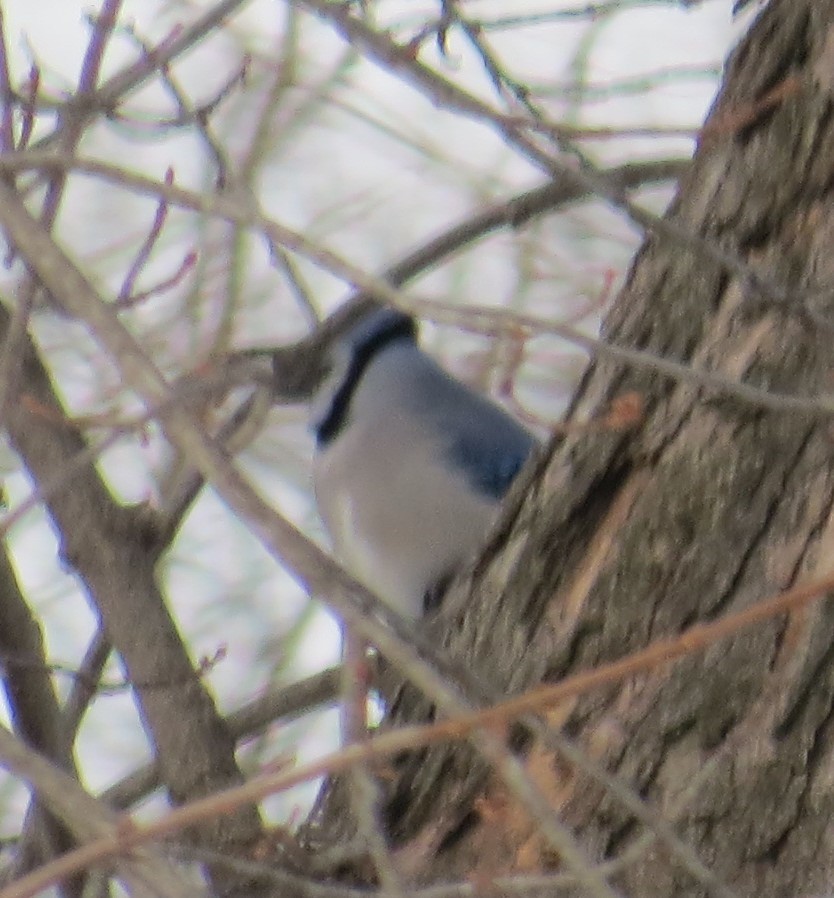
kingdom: Animalia
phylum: Chordata
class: Aves
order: Passeriformes
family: Corvidae
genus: Cyanocitta
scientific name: Cyanocitta cristata
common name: Blue jay
